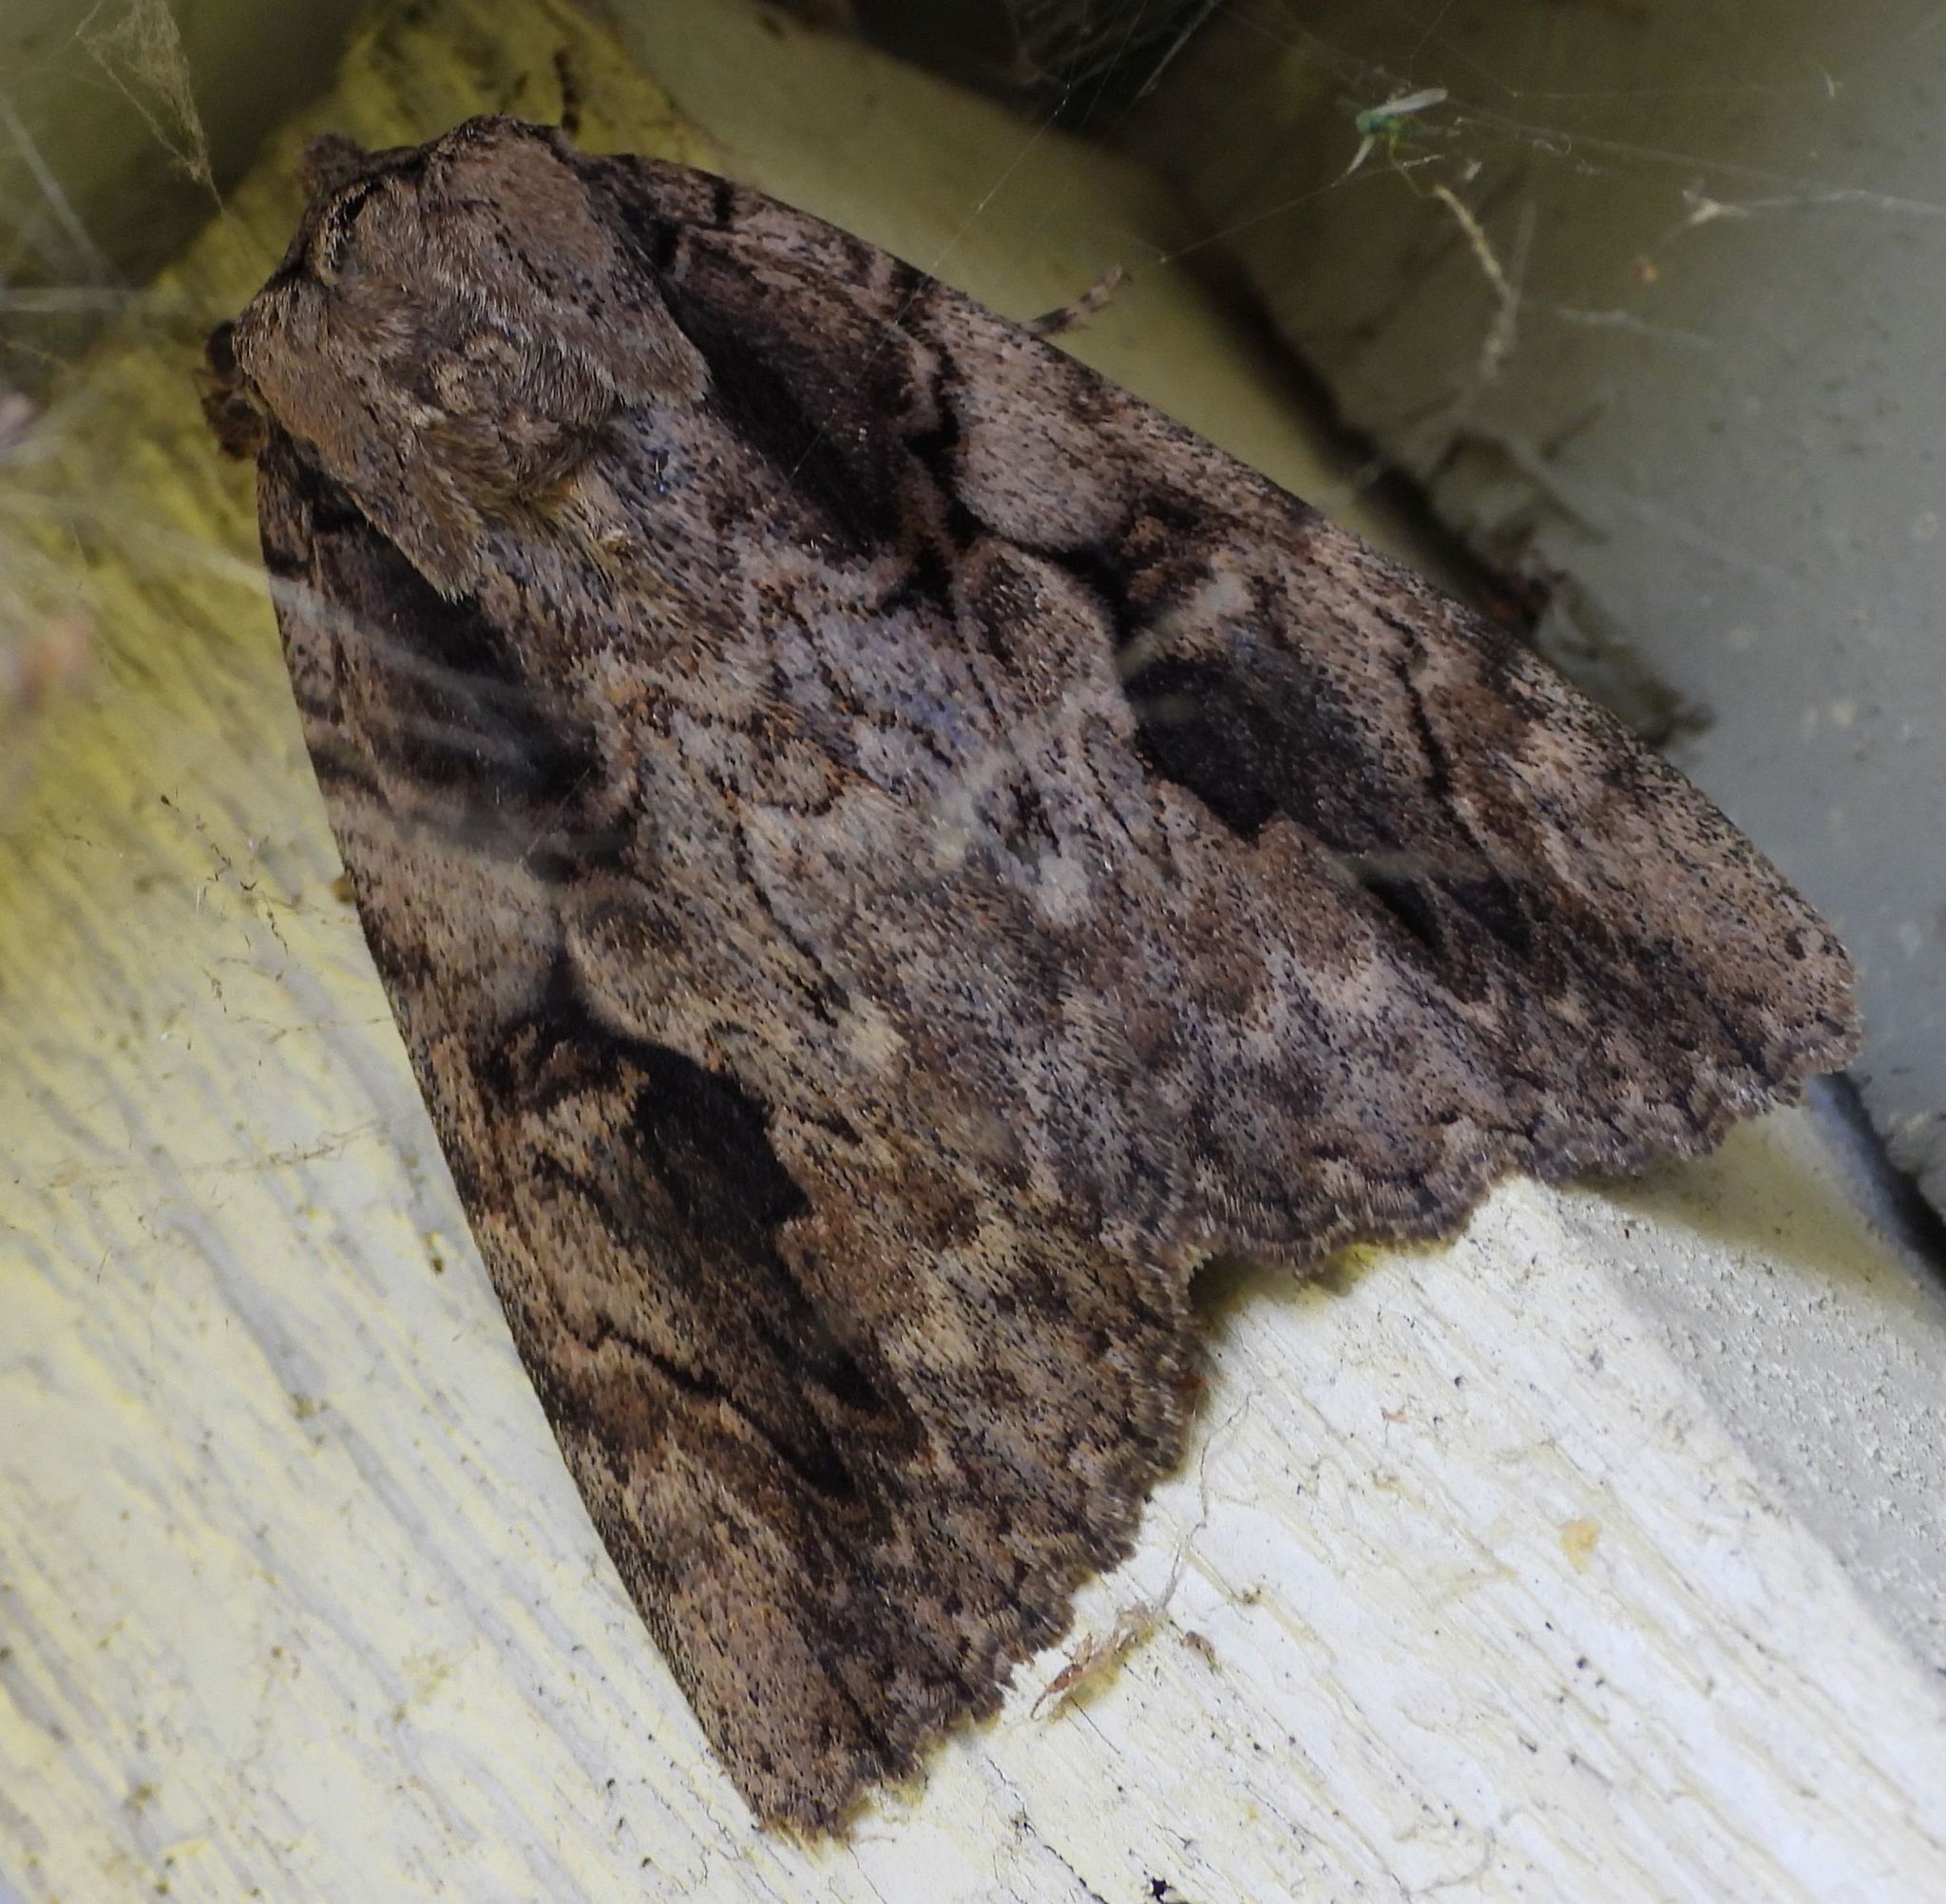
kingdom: Animalia
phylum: Arthropoda
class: Insecta
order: Lepidoptera
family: Erebidae
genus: Catocala
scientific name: Catocala amatrix
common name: Sweetheart underwing
